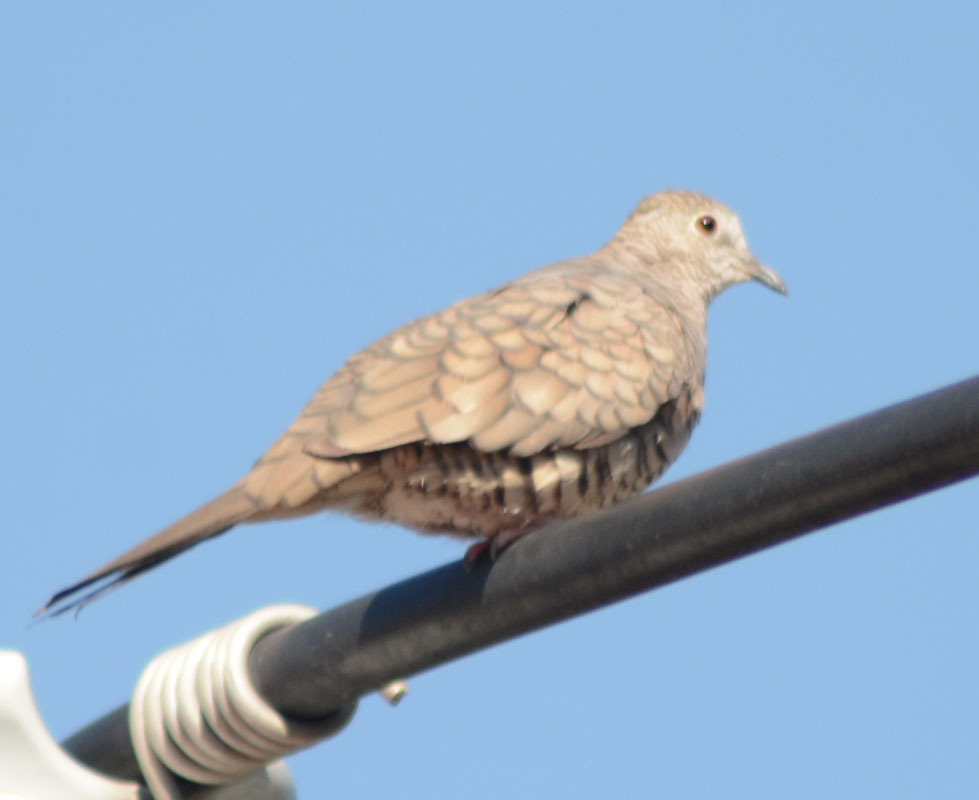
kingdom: Animalia
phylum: Chordata
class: Aves
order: Columbiformes
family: Columbidae
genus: Columbina
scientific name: Columbina inca
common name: Inca dove
